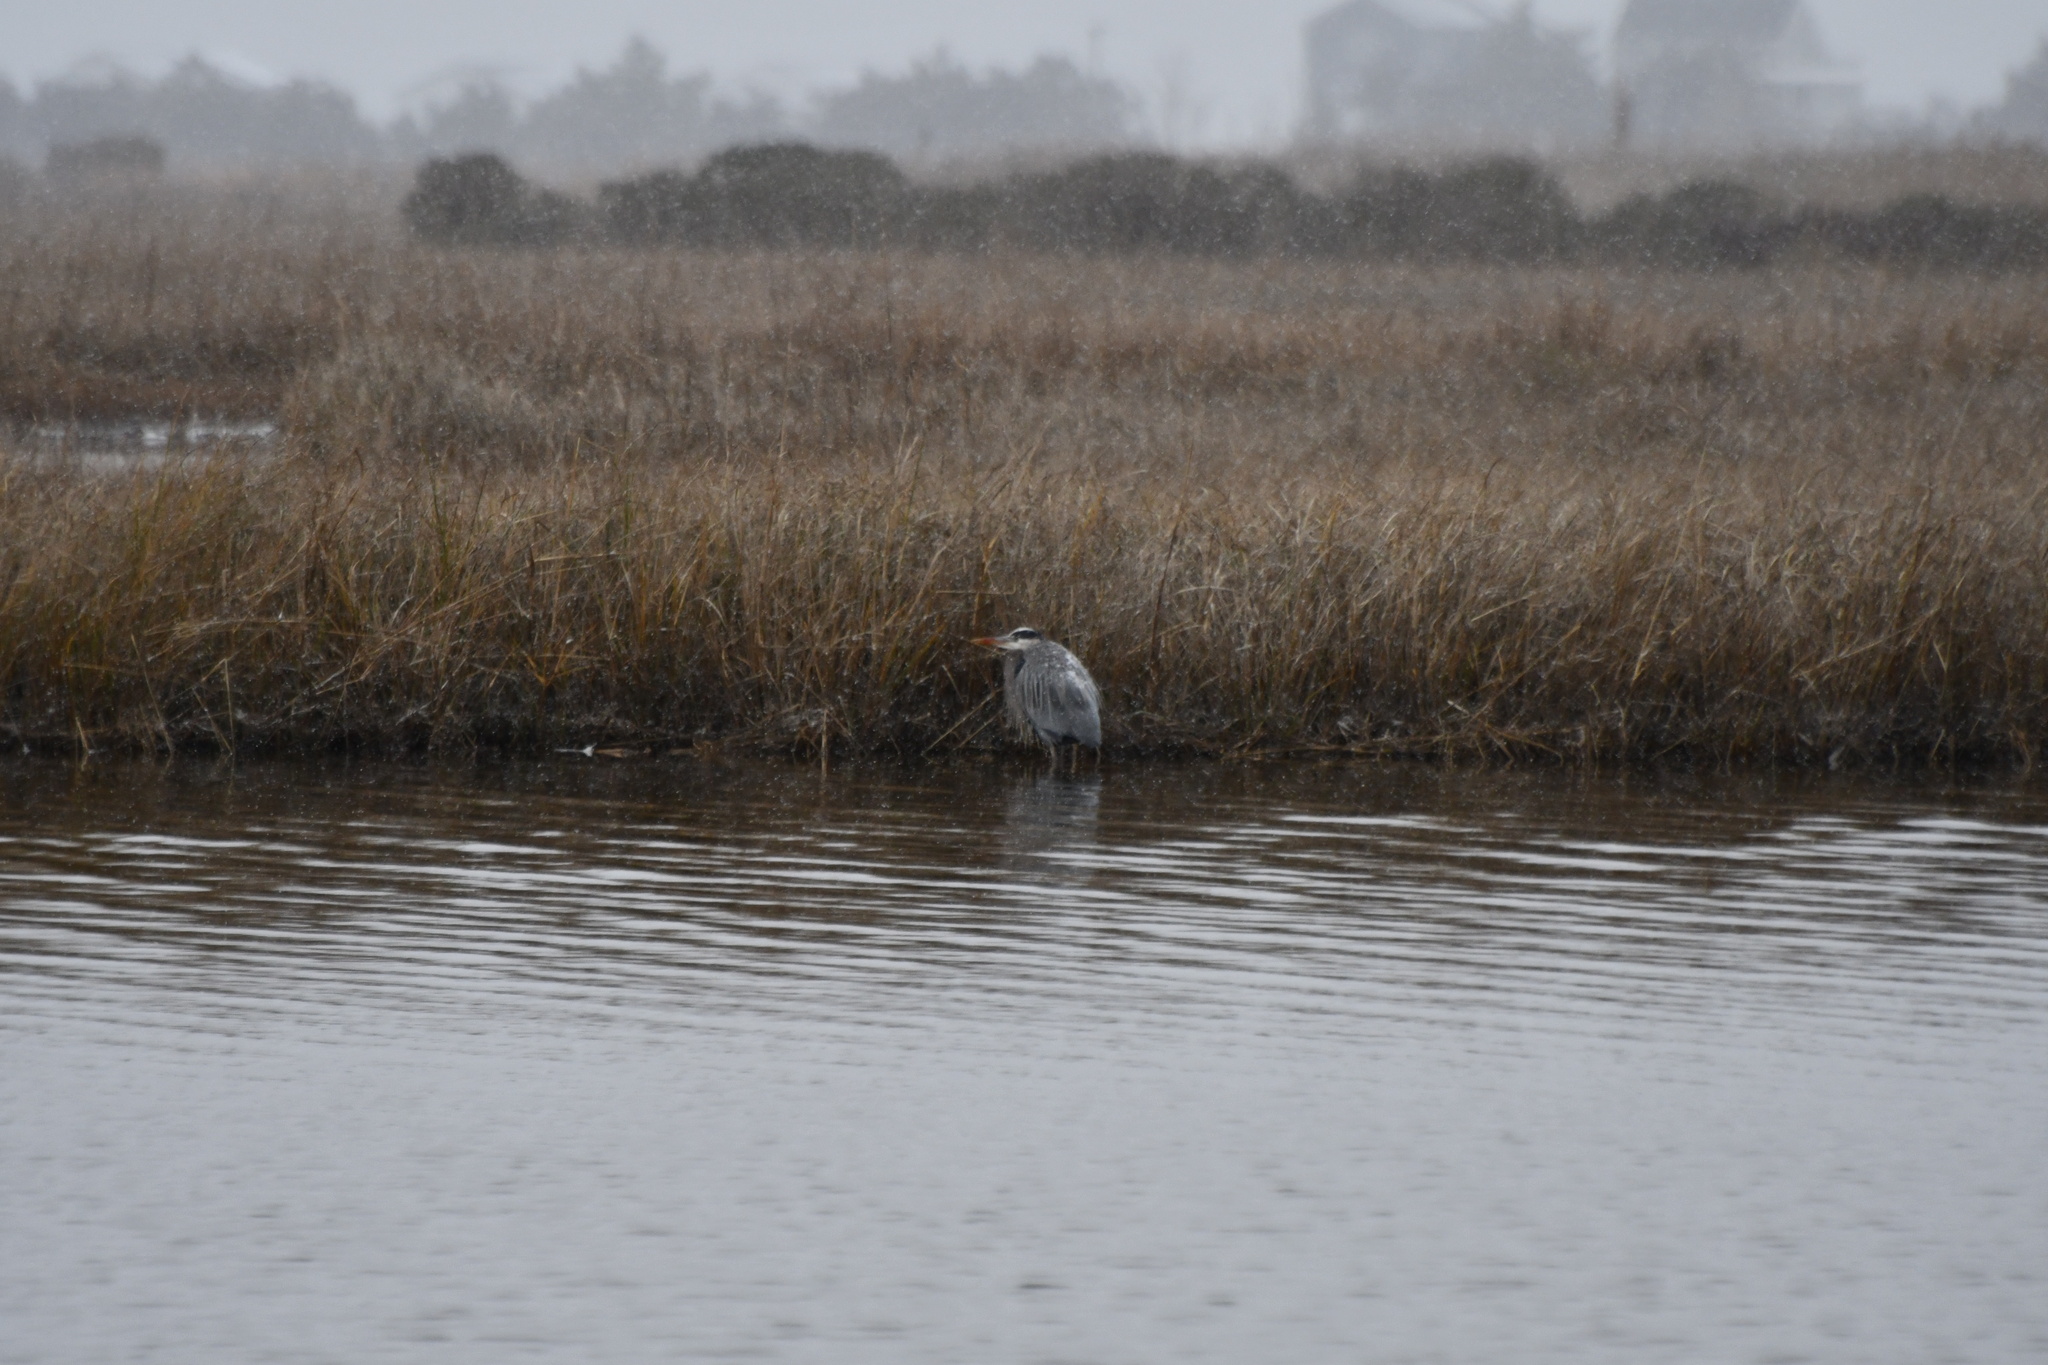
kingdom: Animalia
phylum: Chordata
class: Aves
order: Pelecaniformes
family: Ardeidae
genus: Ardea
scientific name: Ardea herodias
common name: Great blue heron
